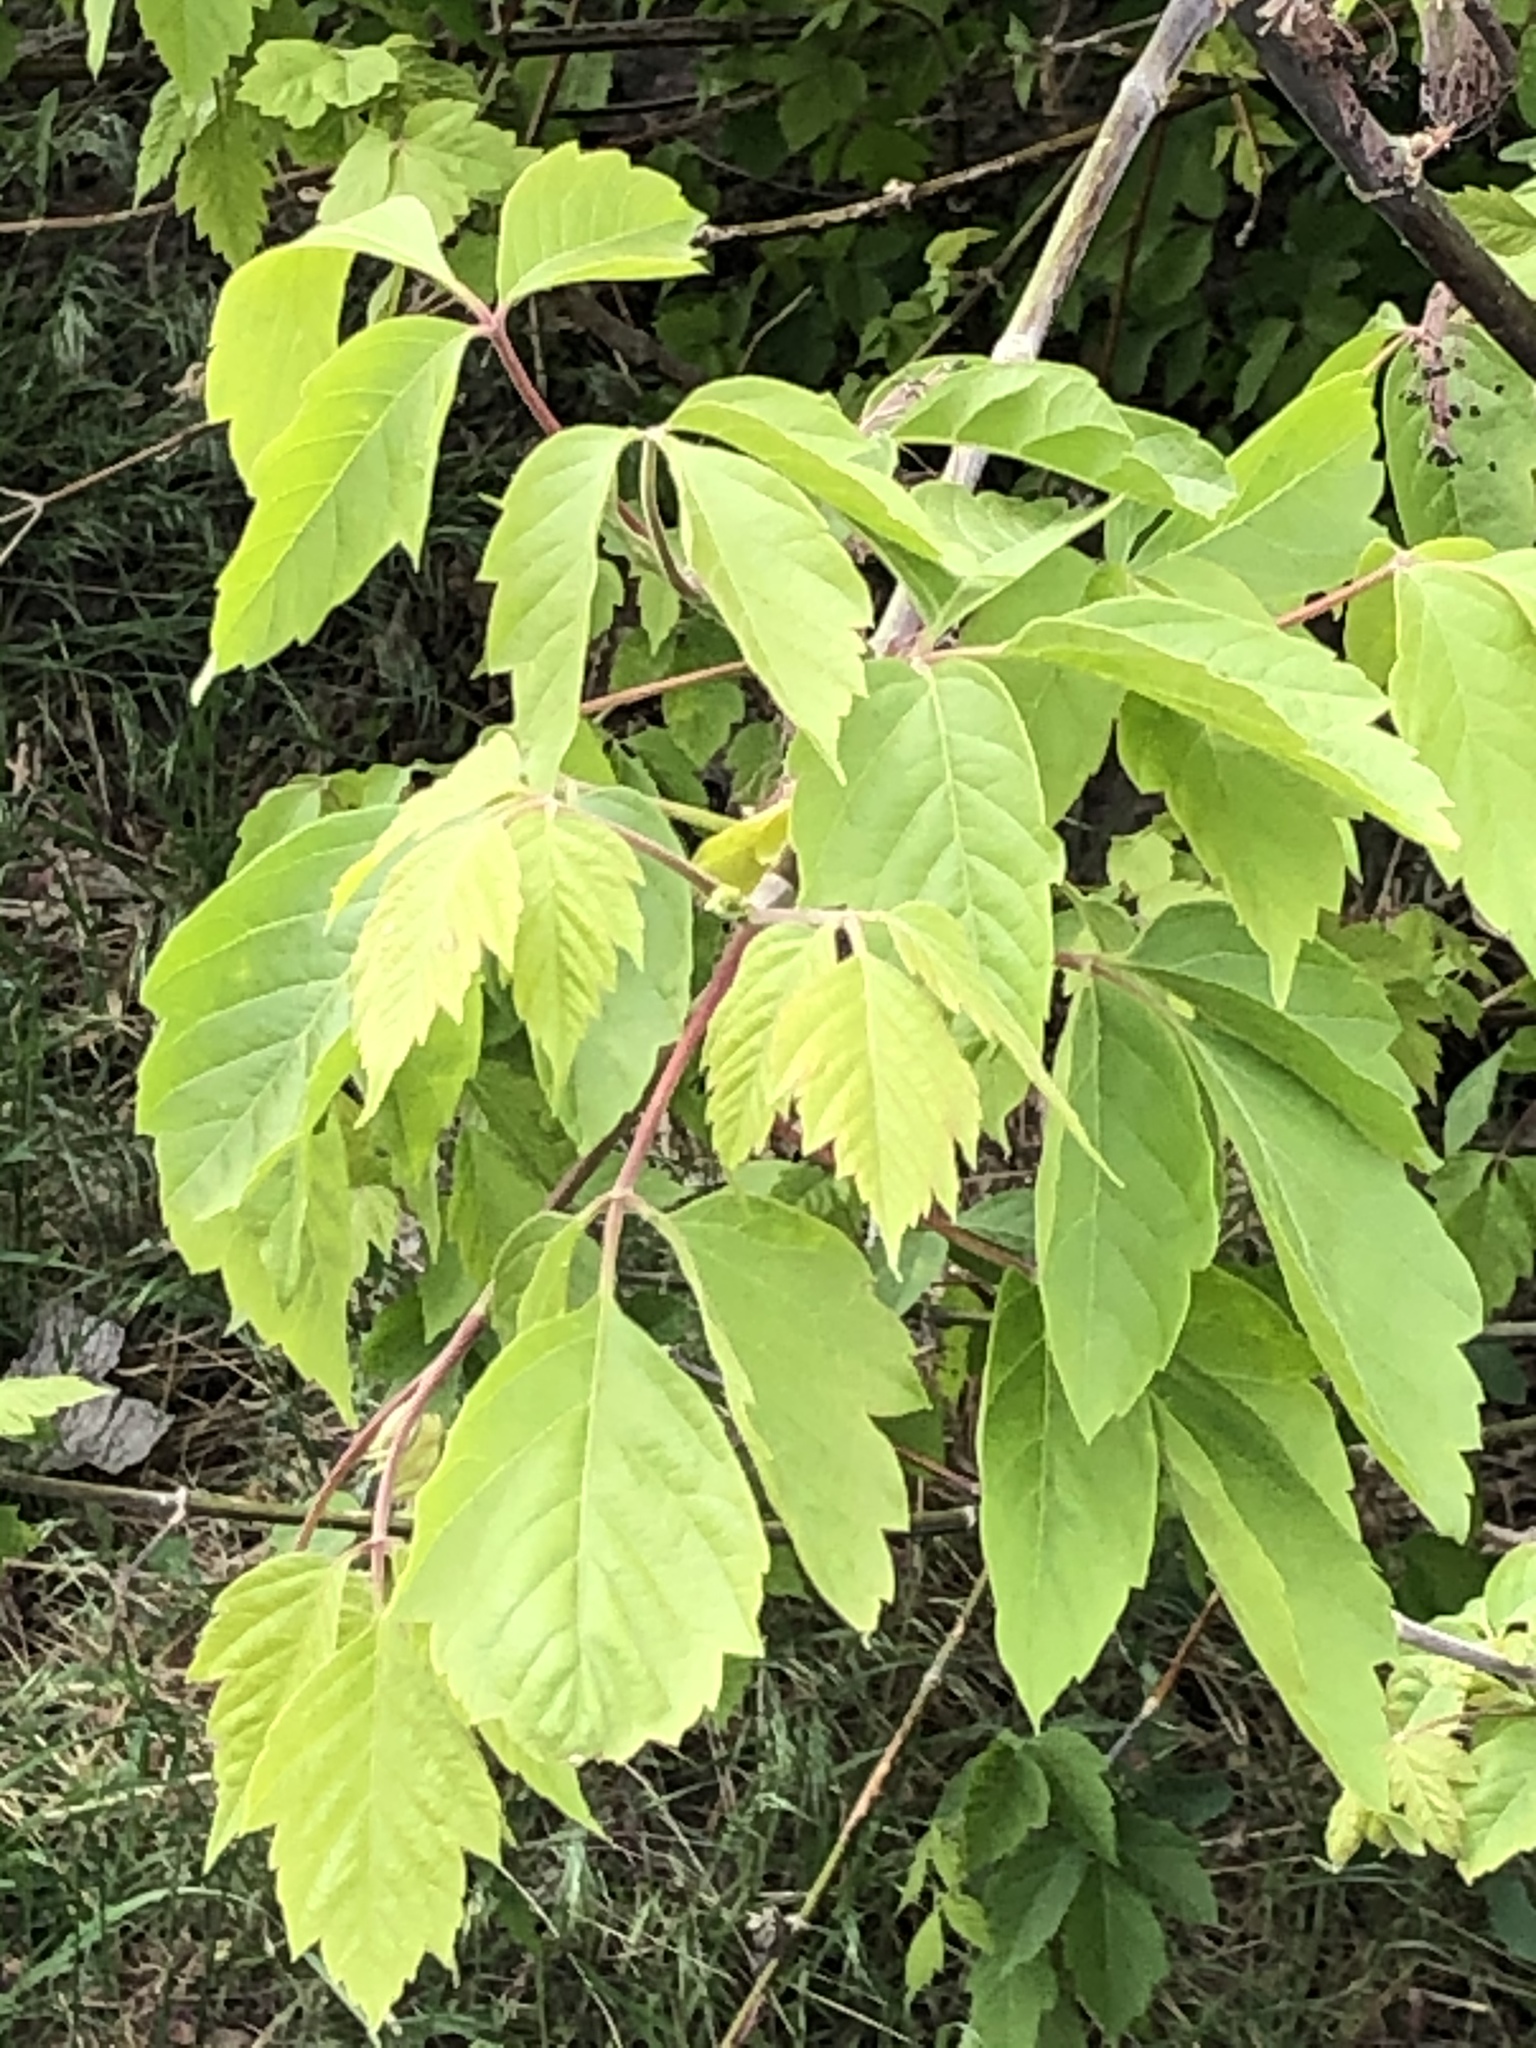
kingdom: Plantae
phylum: Tracheophyta
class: Magnoliopsida
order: Sapindales
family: Sapindaceae
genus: Acer
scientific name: Acer negundo
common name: Ashleaf maple
